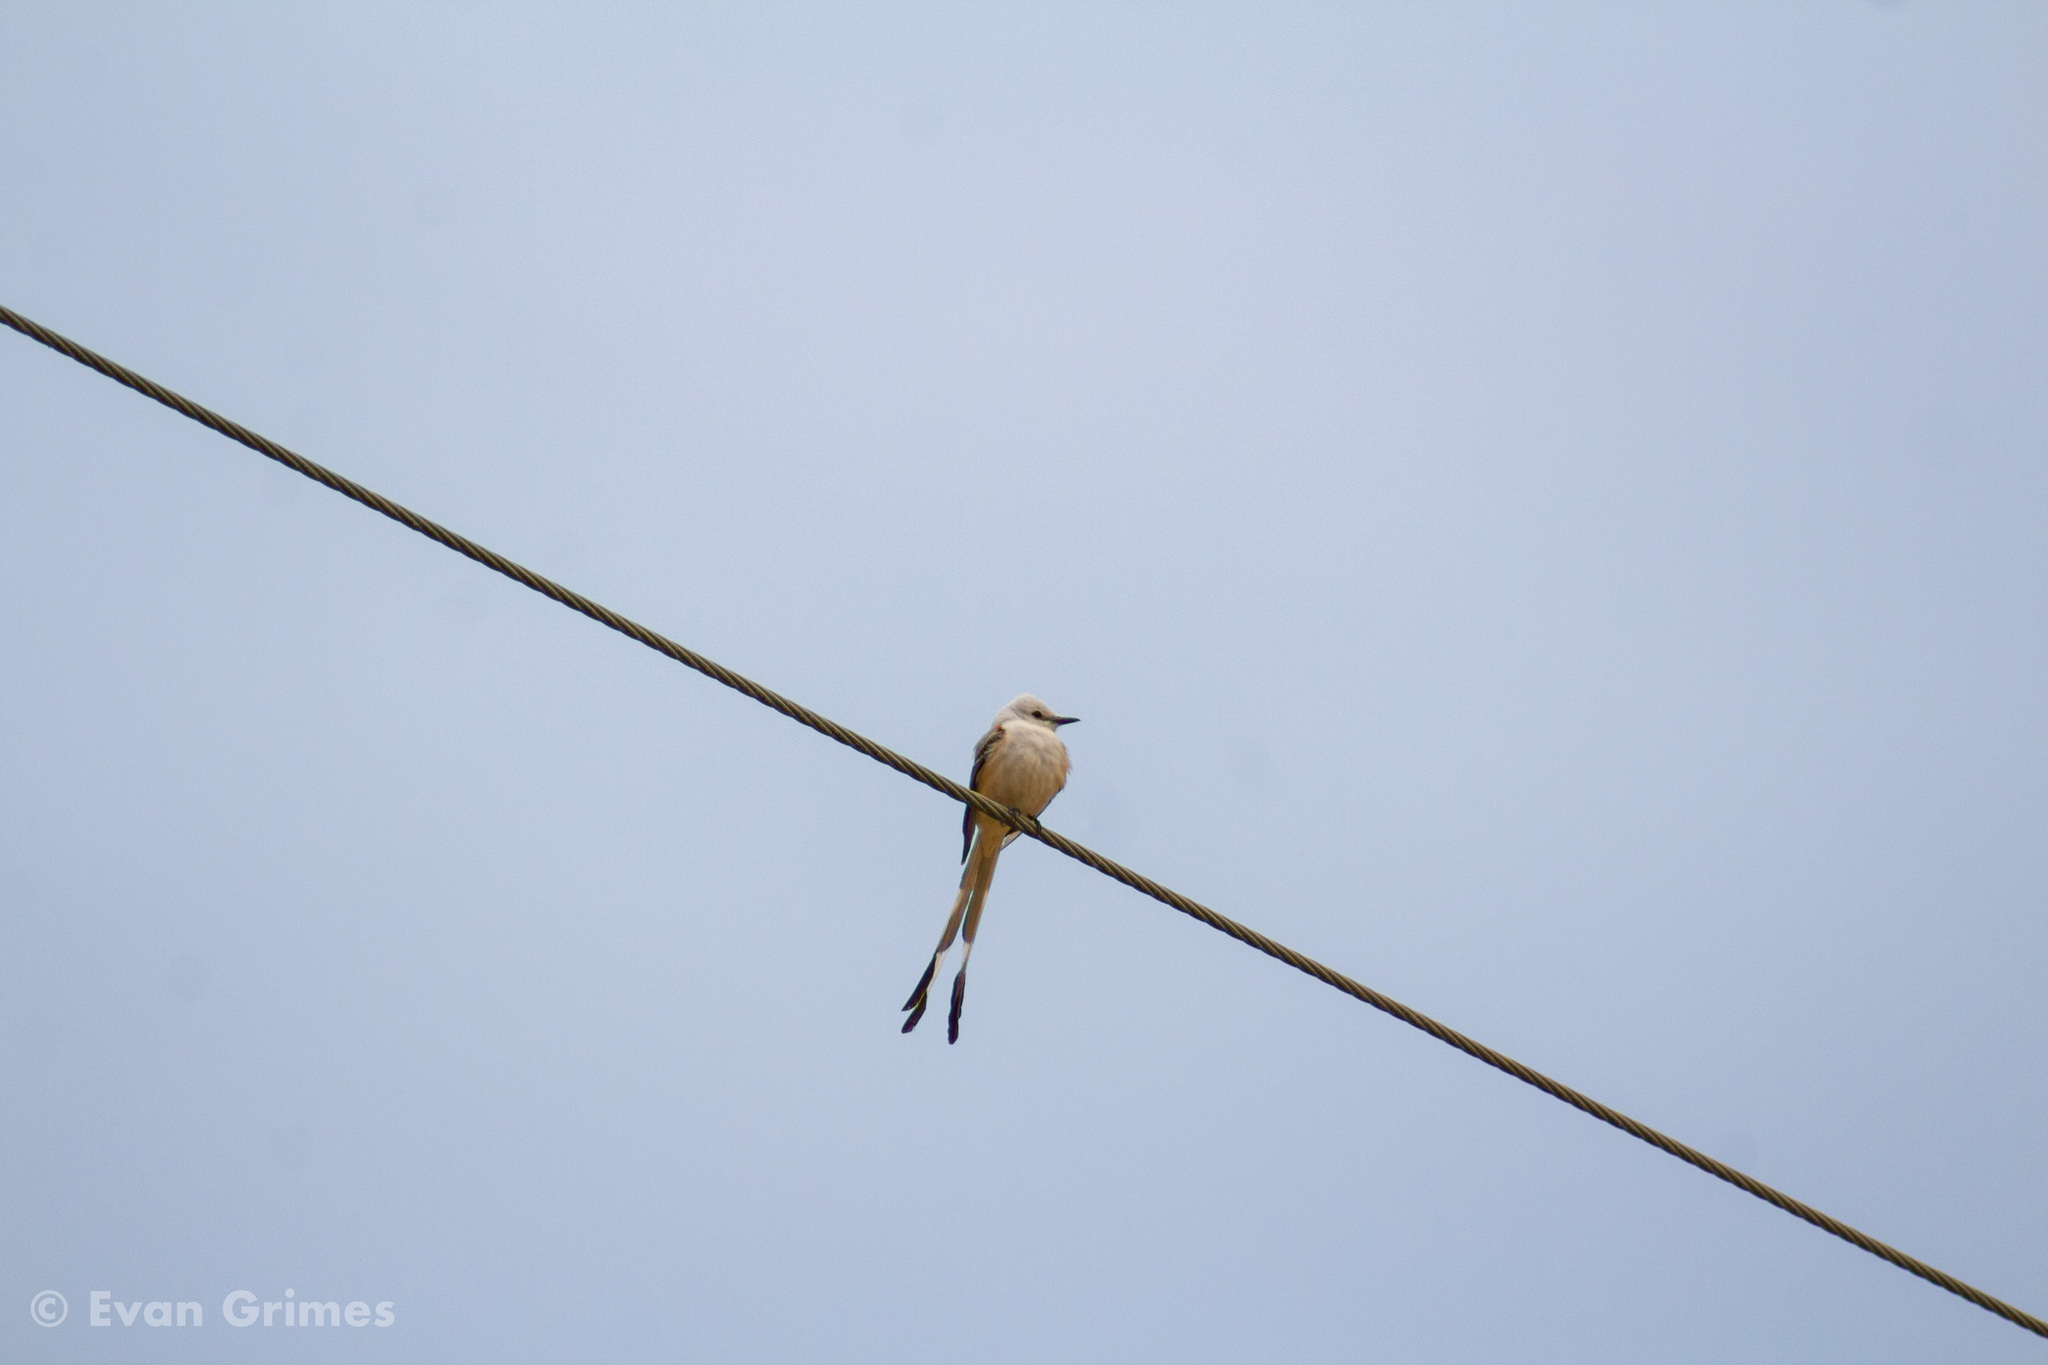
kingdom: Animalia
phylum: Chordata
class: Aves
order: Passeriformes
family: Tyrannidae
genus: Tyrannus
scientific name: Tyrannus forficatus
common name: Scissor-tailed flycatcher
